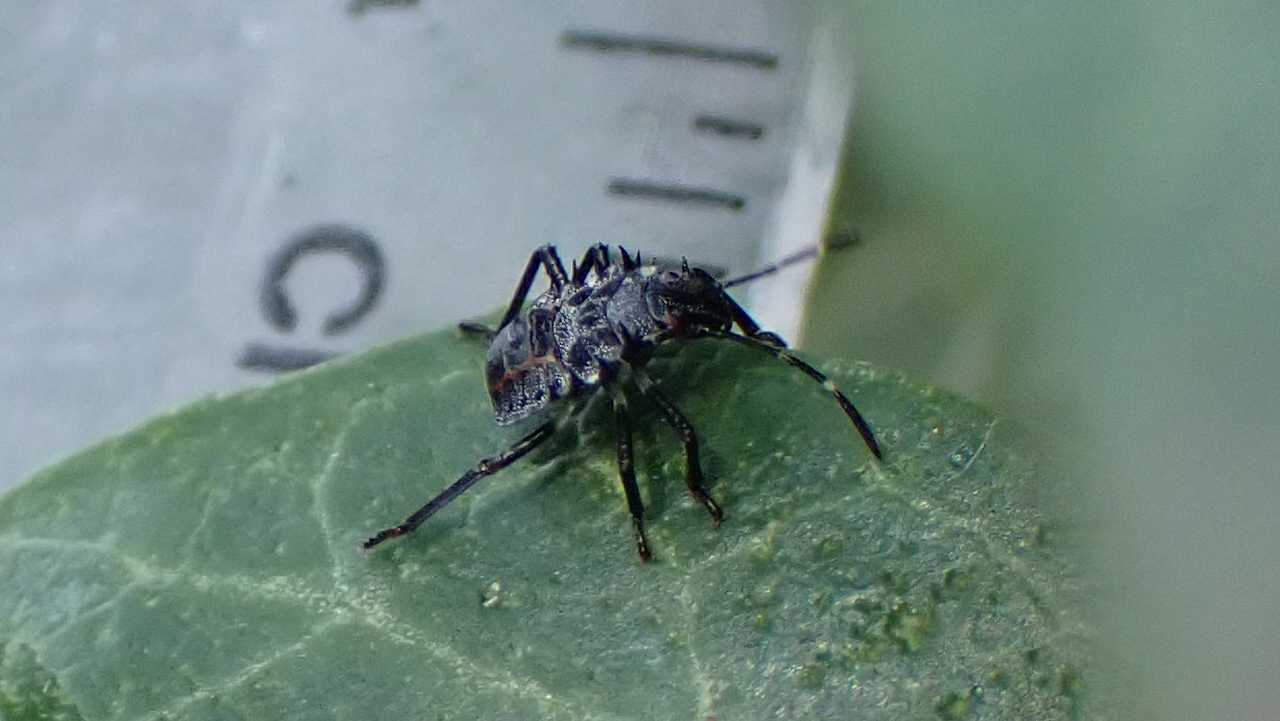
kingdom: Animalia
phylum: Arthropoda
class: Insecta
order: Hemiptera
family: Pentatomidae
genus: Halyomorpha
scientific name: Halyomorpha halys
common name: Brown marmorated stink bug
